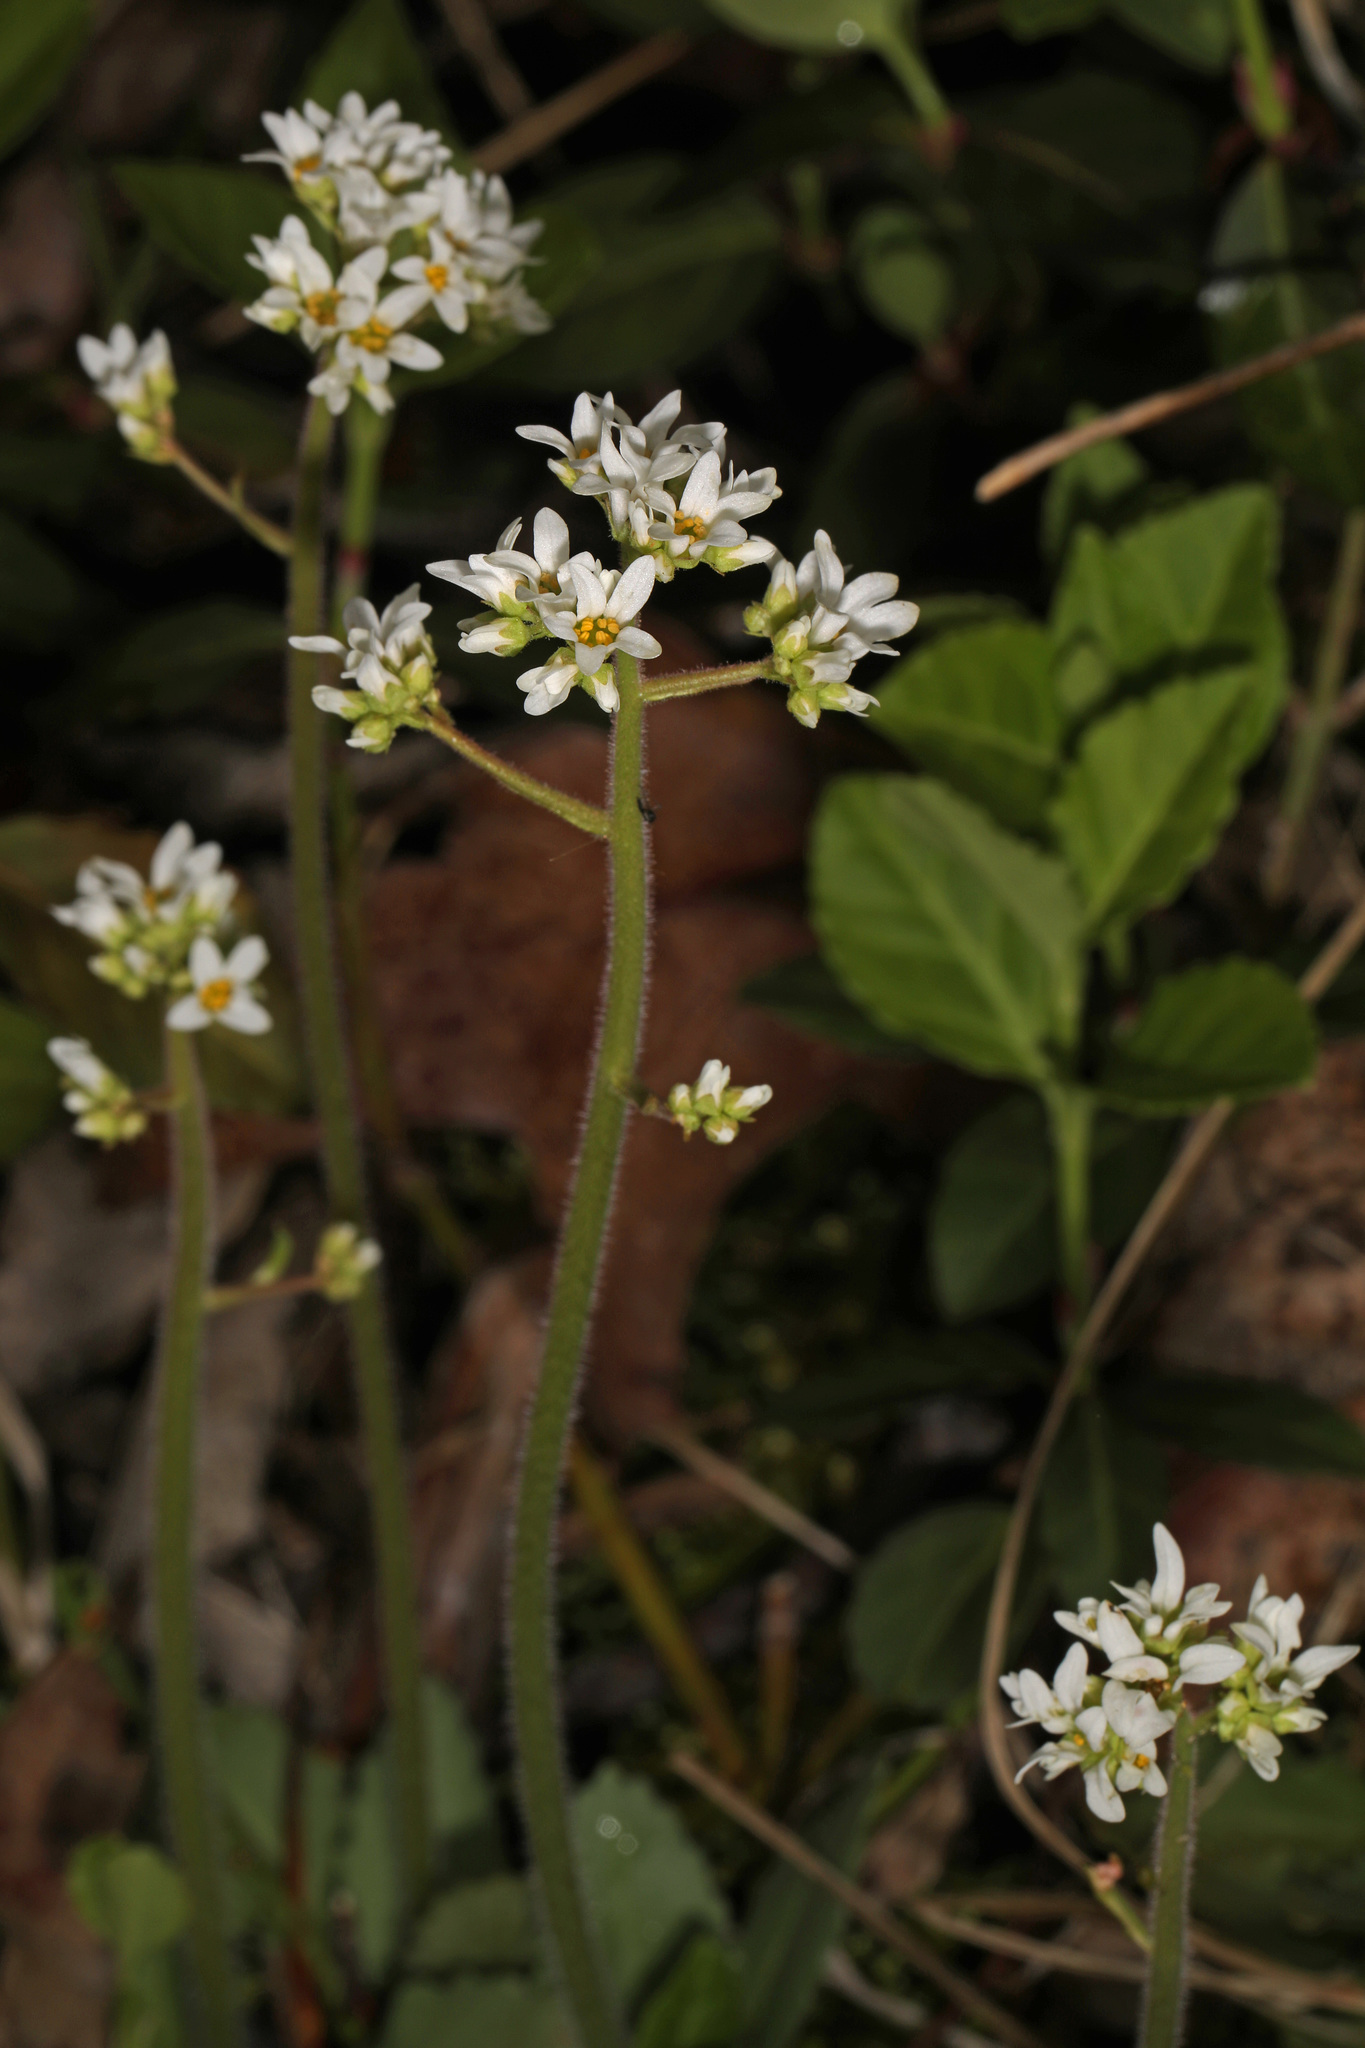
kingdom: Plantae
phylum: Tracheophyta
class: Magnoliopsida
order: Saxifragales
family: Saxifragaceae
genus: Micranthes
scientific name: Micranthes virginiensis
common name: Early saxifrage
